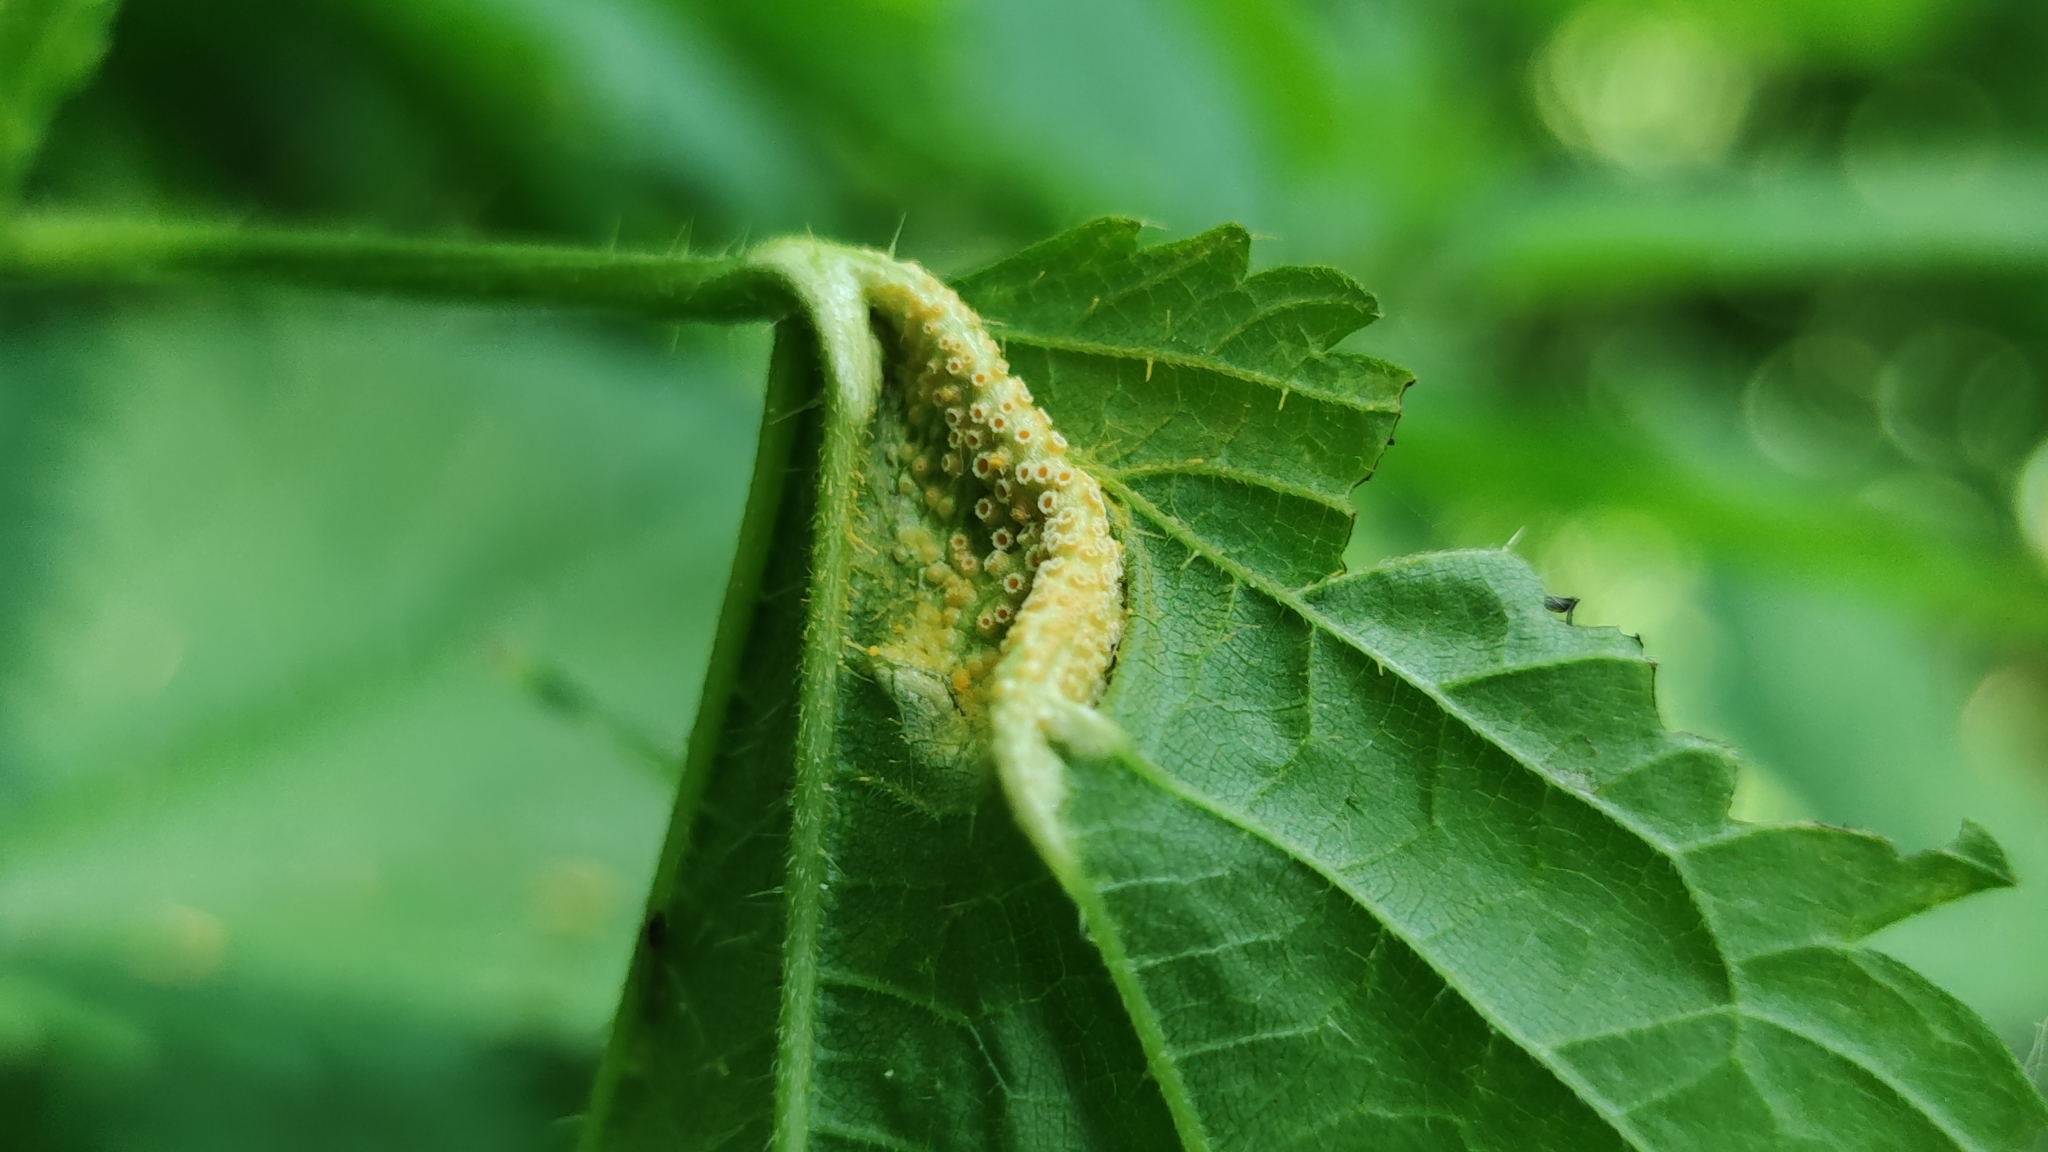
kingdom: Fungi
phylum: Basidiomycota
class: Pucciniomycetes
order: Pucciniales
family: Pucciniaceae
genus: Puccinia
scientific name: Puccinia urticata
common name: Nettle clustercup rust fungus
